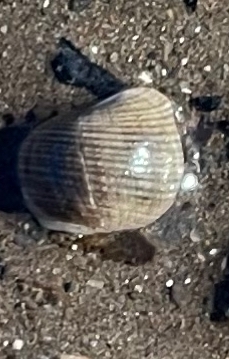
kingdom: Animalia
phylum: Mollusca
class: Gastropoda
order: Littorinimorpha
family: Littorinidae
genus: Littorina
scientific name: Littorina littorea
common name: Common periwinkle
